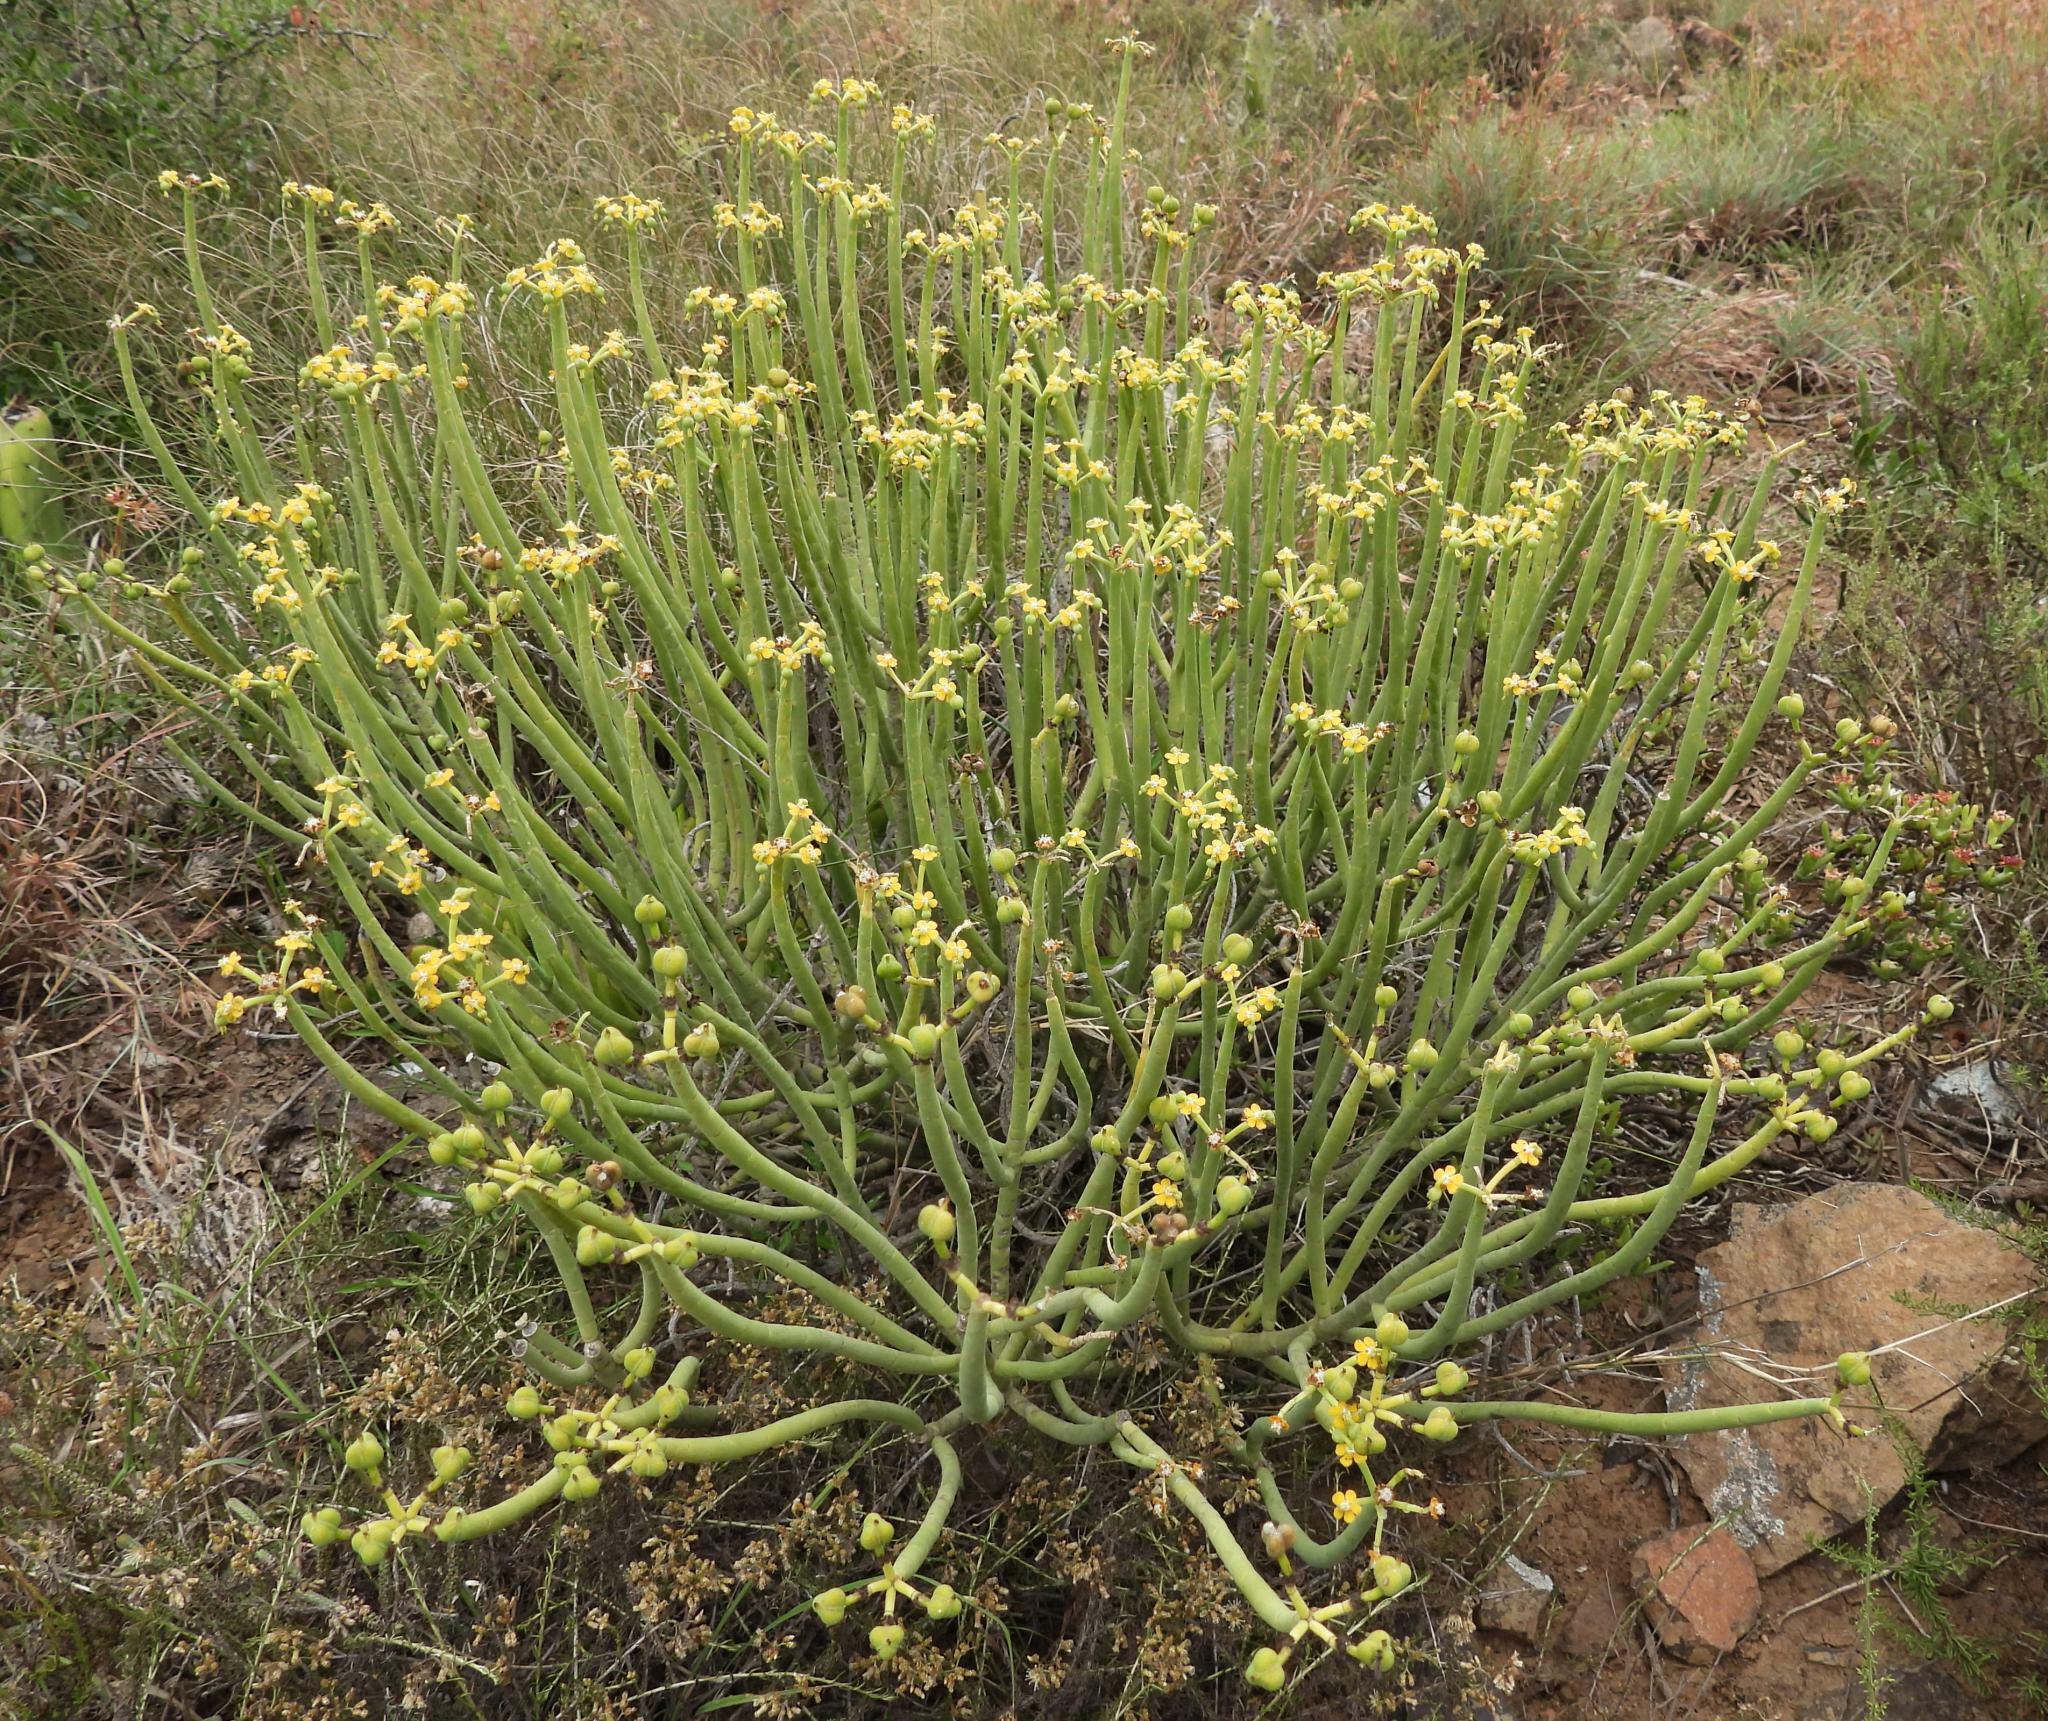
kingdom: Plantae
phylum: Tracheophyta
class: Magnoliopsida
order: Malpighiales
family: Euphorbiaceae
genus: Euphorbia
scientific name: Euphorbia mauritanica
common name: Jackal's-food
